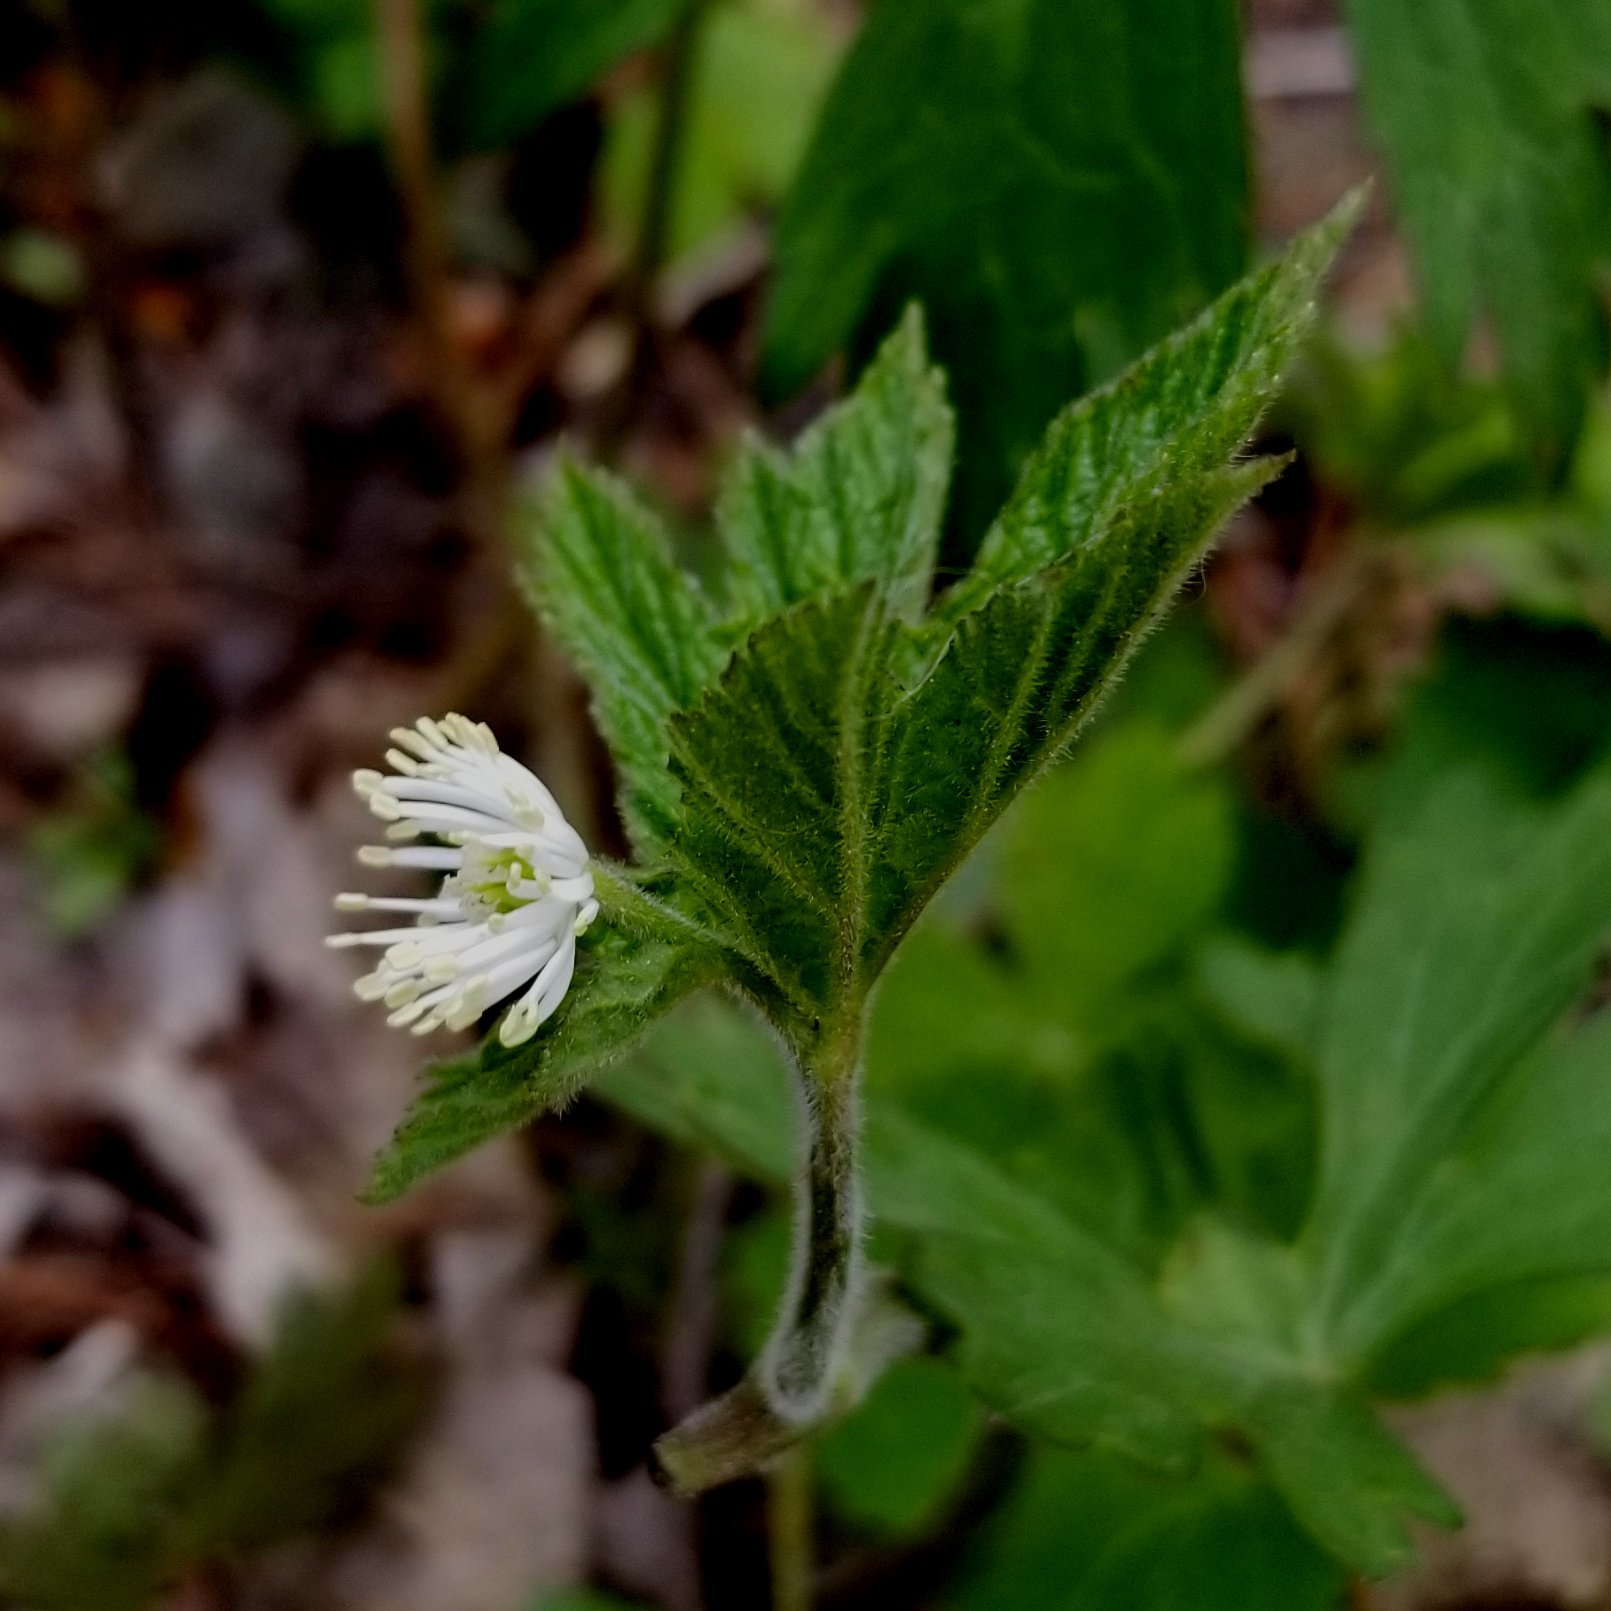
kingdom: Plantae
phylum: Tracheophyta
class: Magnoliopsida
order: Ranunculales
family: Ranunculaceae
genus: Hydrastis
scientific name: Hydrastis canadensis
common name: Goldenseal
